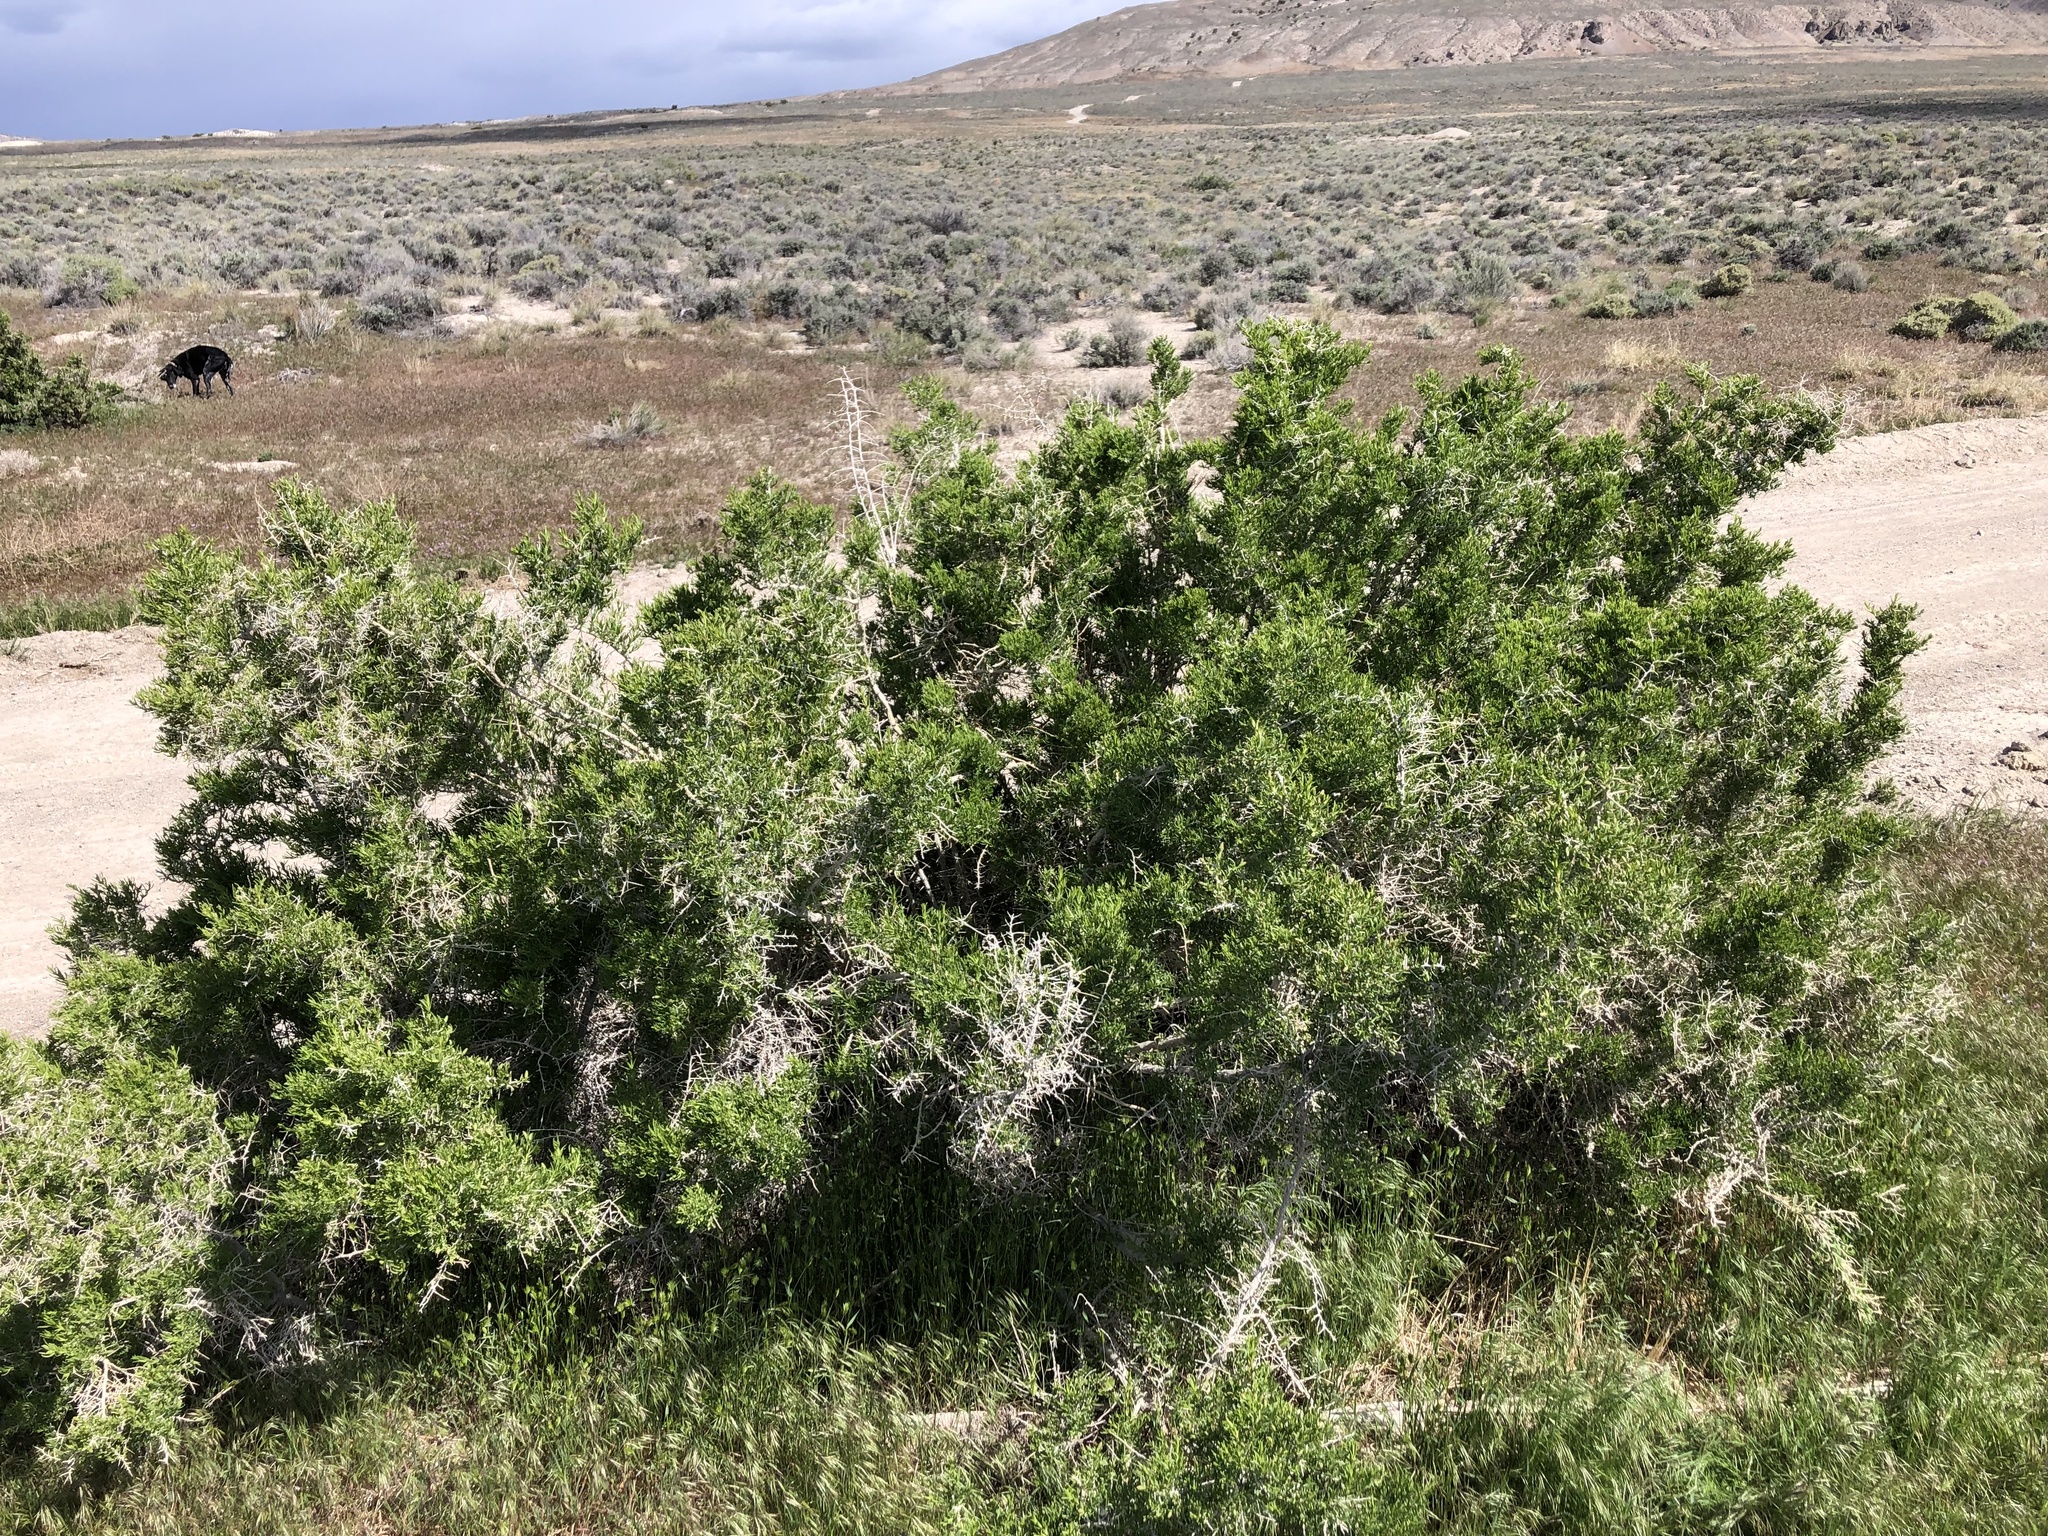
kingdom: Plantae
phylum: Tracheophyta
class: Magnoliopsida
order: Caryophyllales
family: Sarcobataceae
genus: Sarcobatus
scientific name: Sarcobatus vermiculatus
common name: Greasewood
